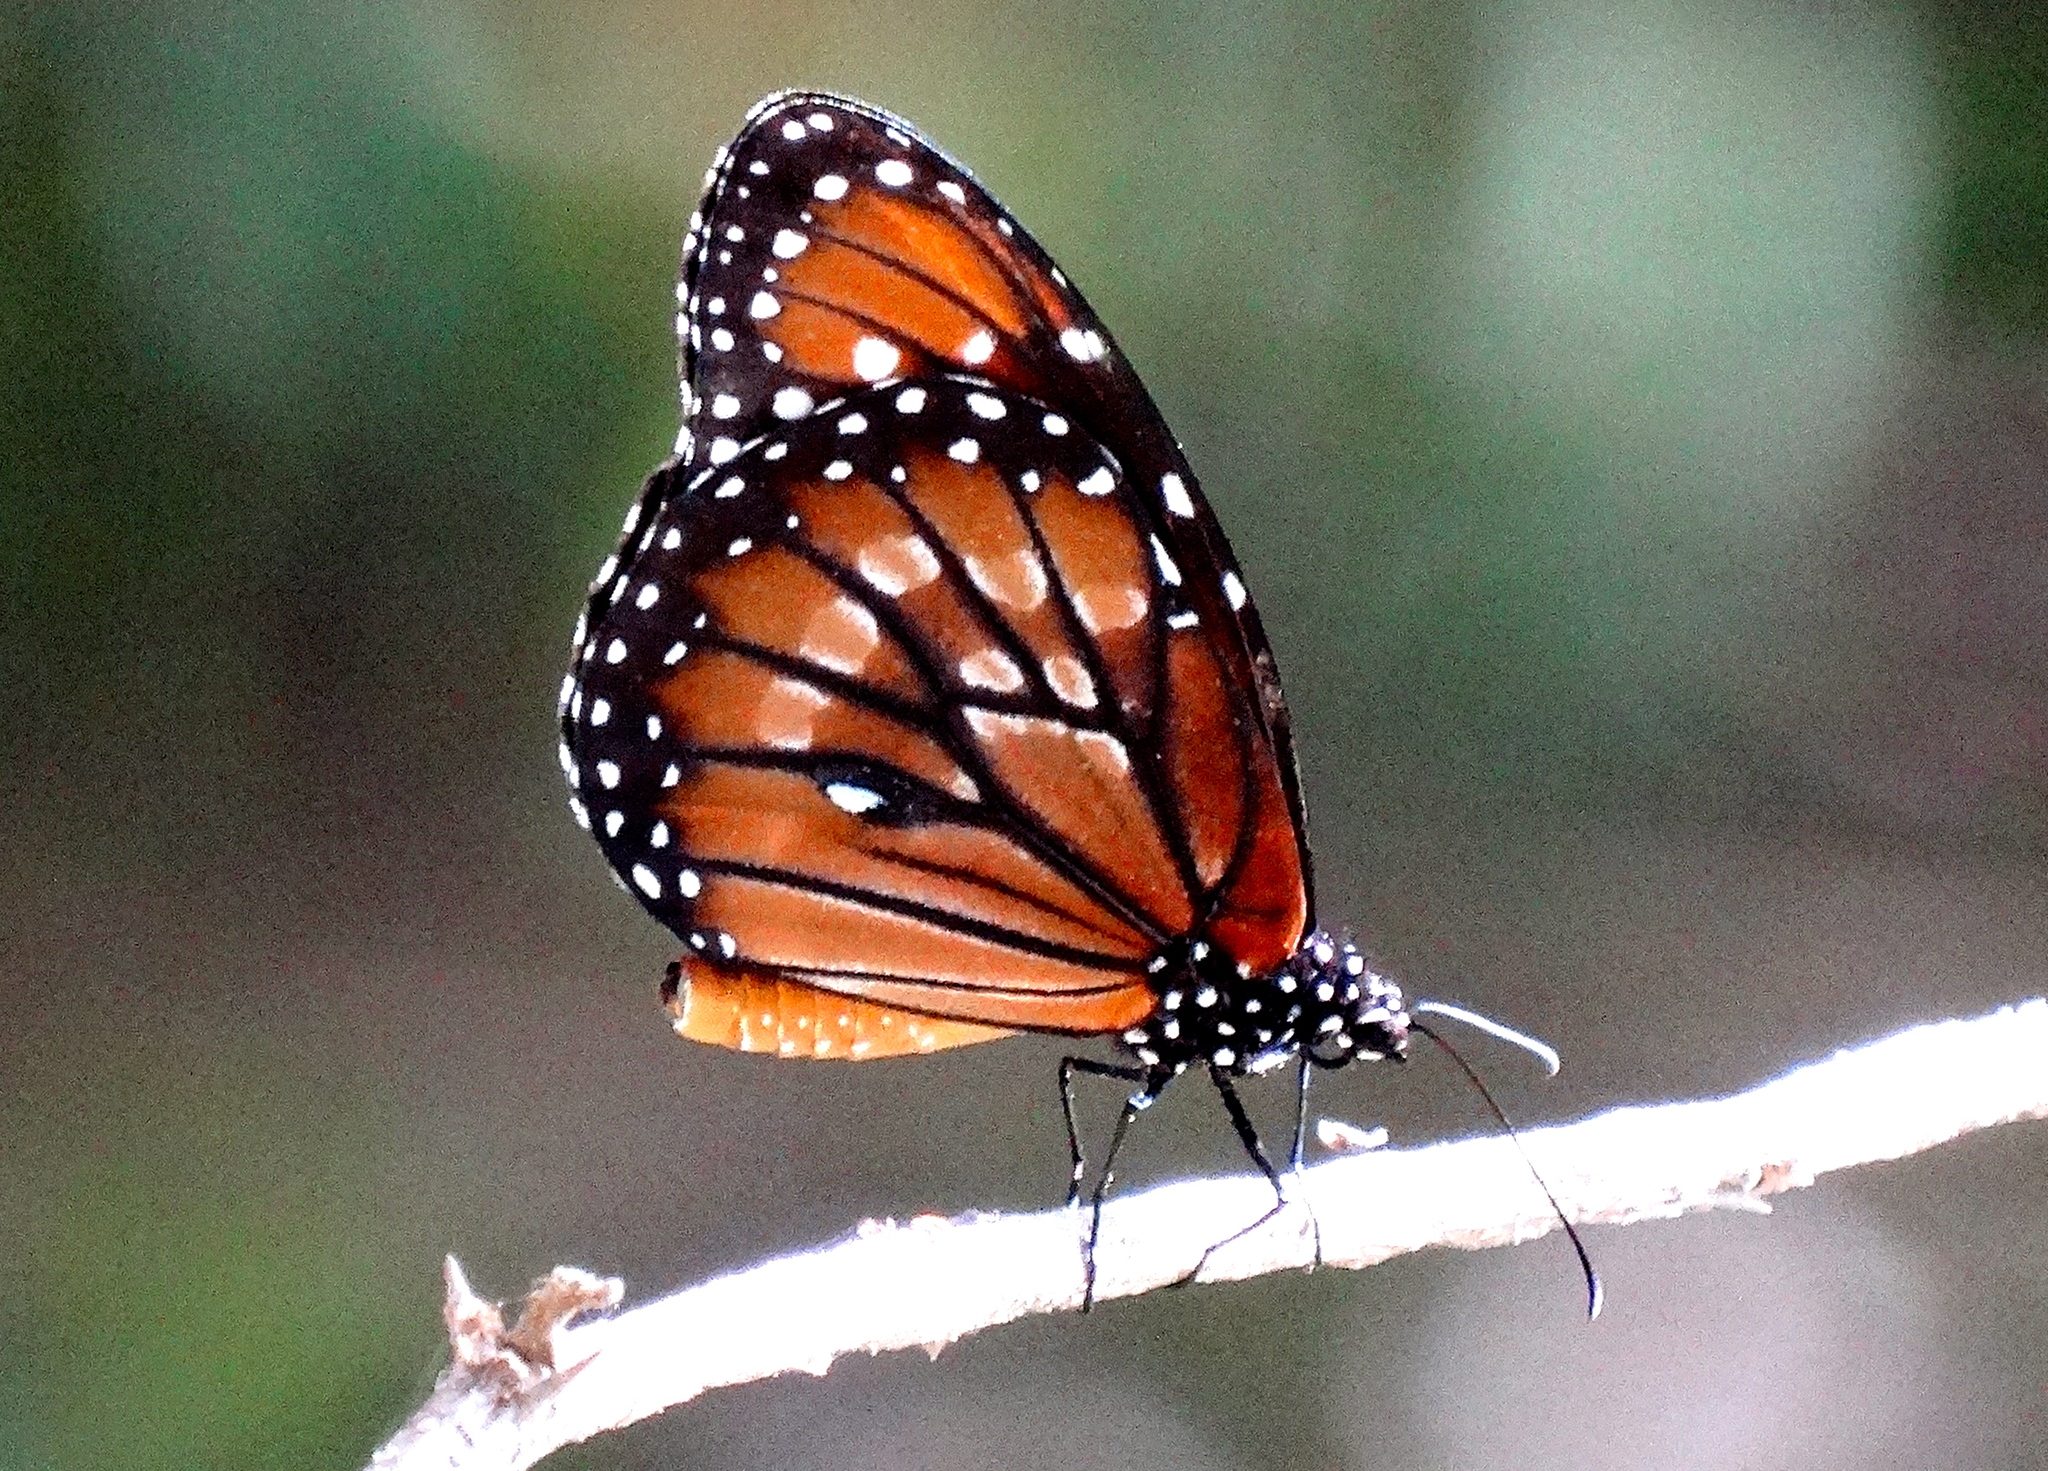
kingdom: Animalia
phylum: Arthropoda
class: Insecta
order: Lepidoptera
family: Nymphalidae
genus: Danaus
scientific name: Danaus eresimus
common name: Soldier
